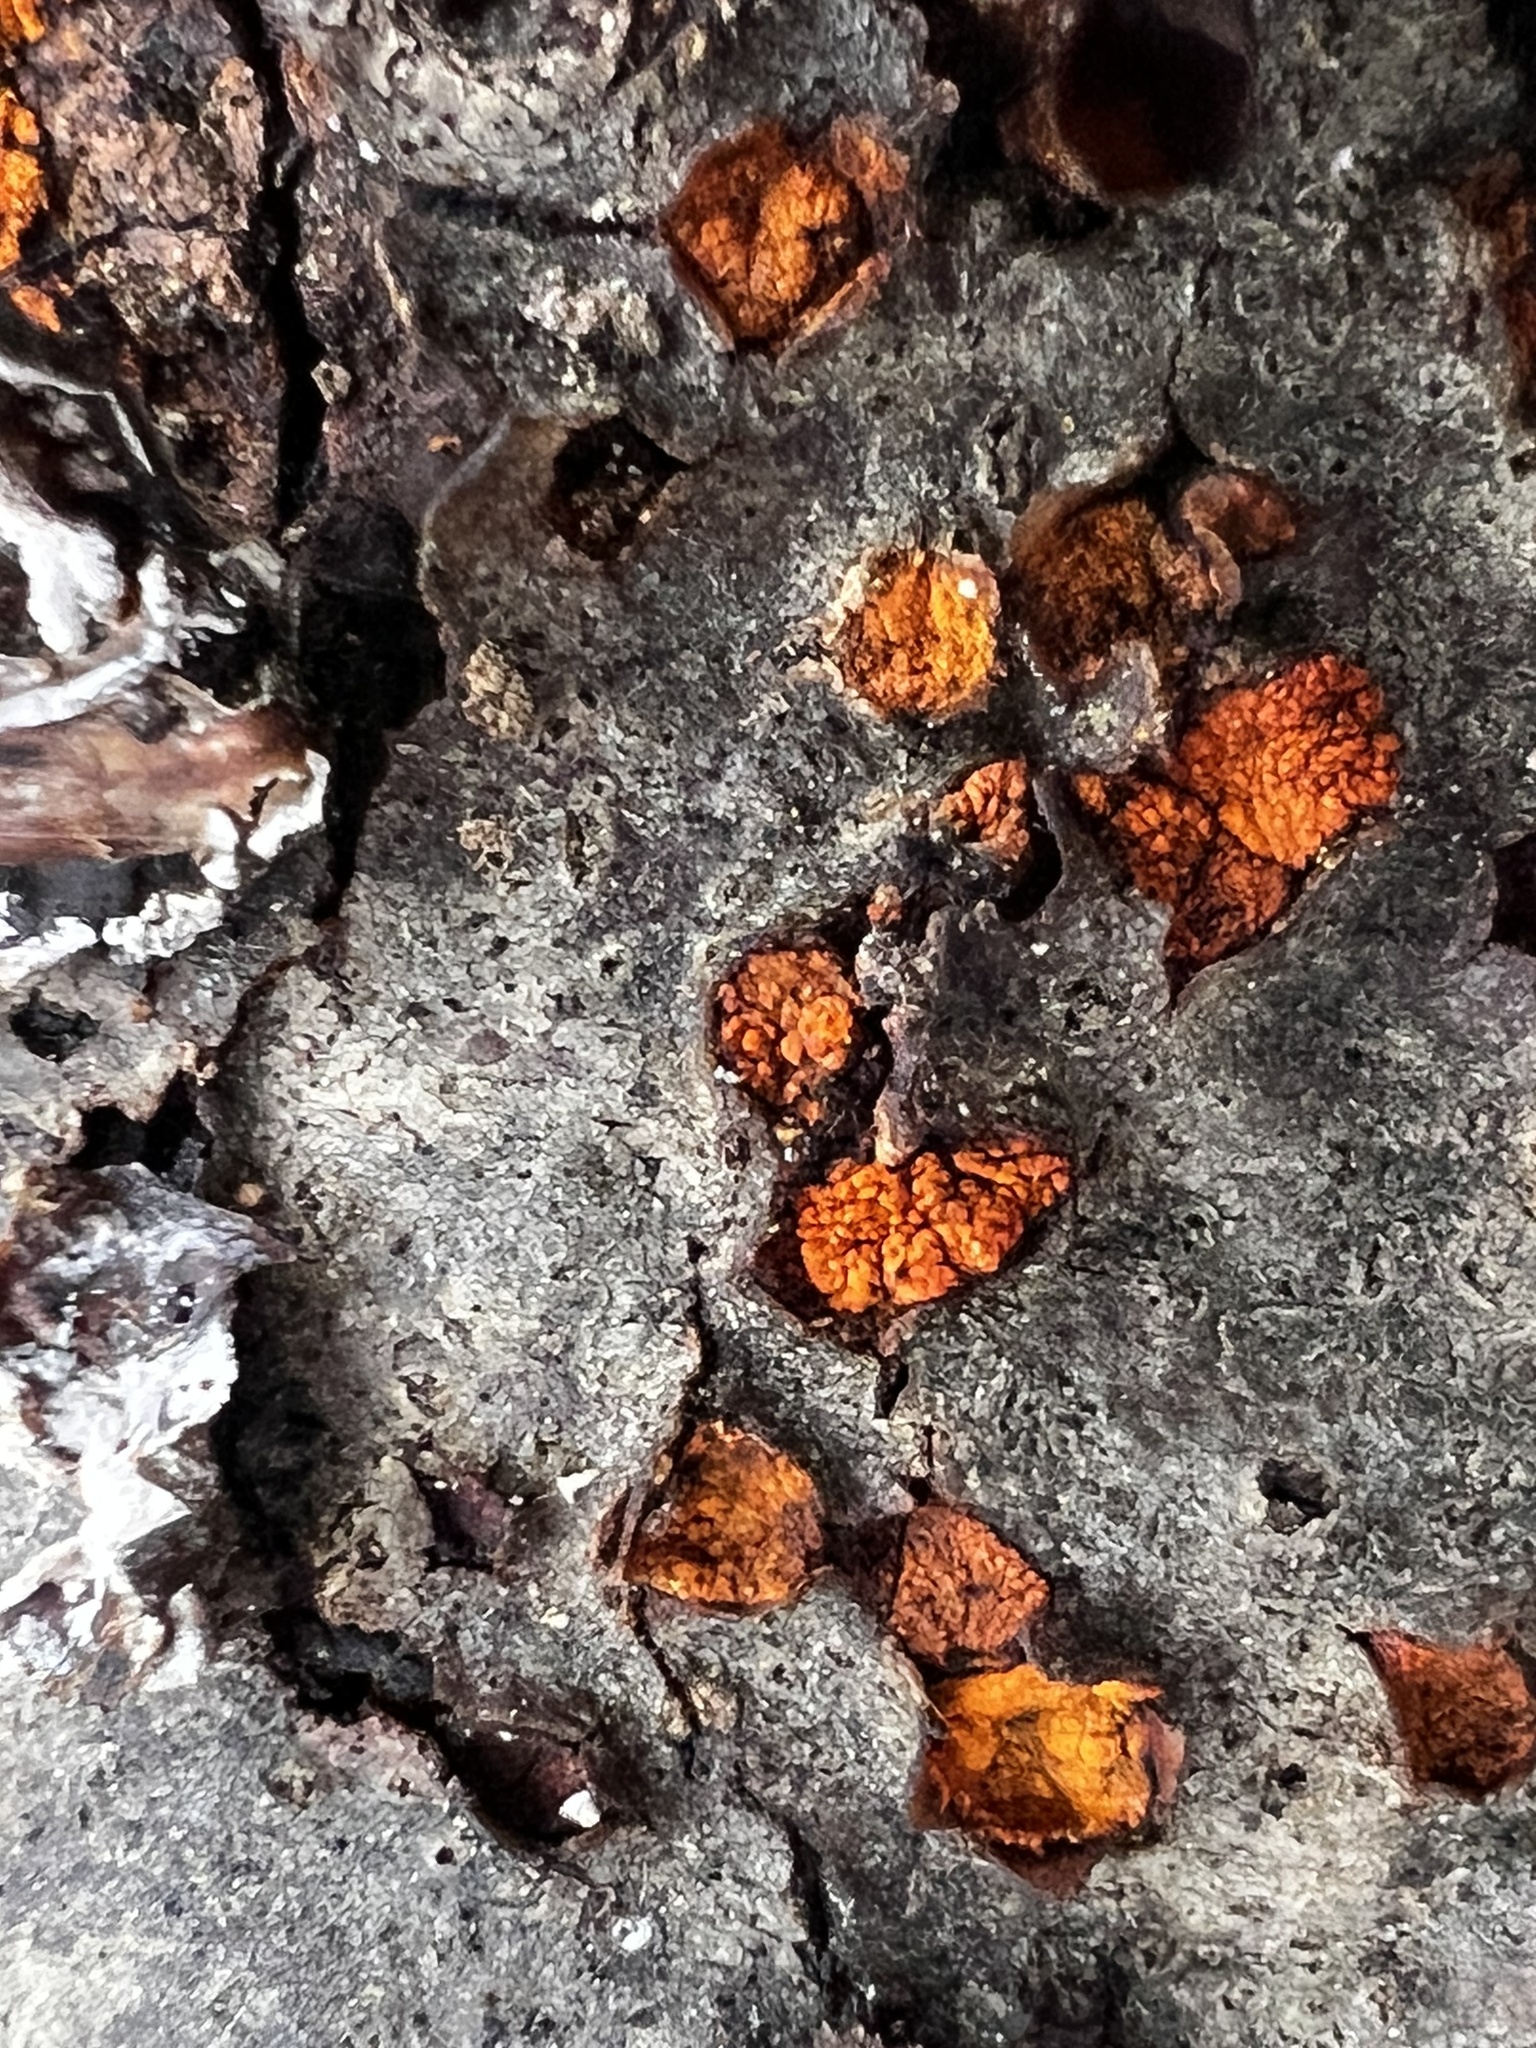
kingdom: Fungi
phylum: Ascomycota
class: Sordariomycetes
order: Diaporthales
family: Cryphonectriaceae
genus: Amphilogia
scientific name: Amphilogia gyrosa
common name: Orange hobnail canker
